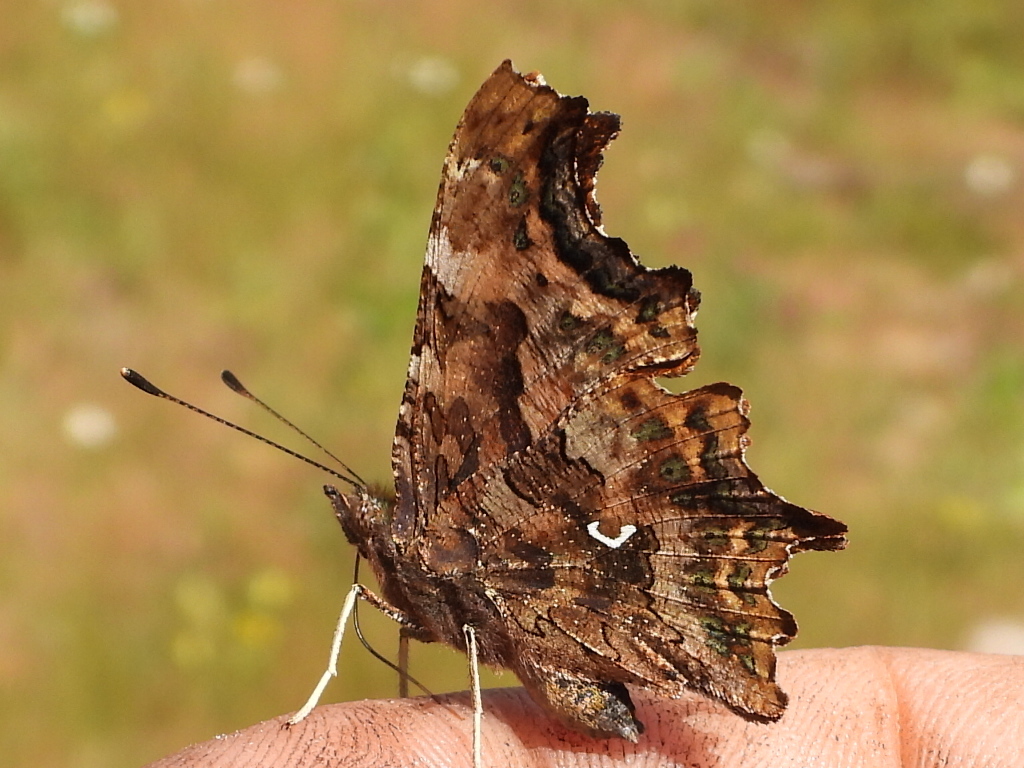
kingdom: Animalia
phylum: Arthropoda
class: Insecta
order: Lepidoptera
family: Nymphalidae
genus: Polygonia
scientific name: Polygonia c-album
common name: Comma
